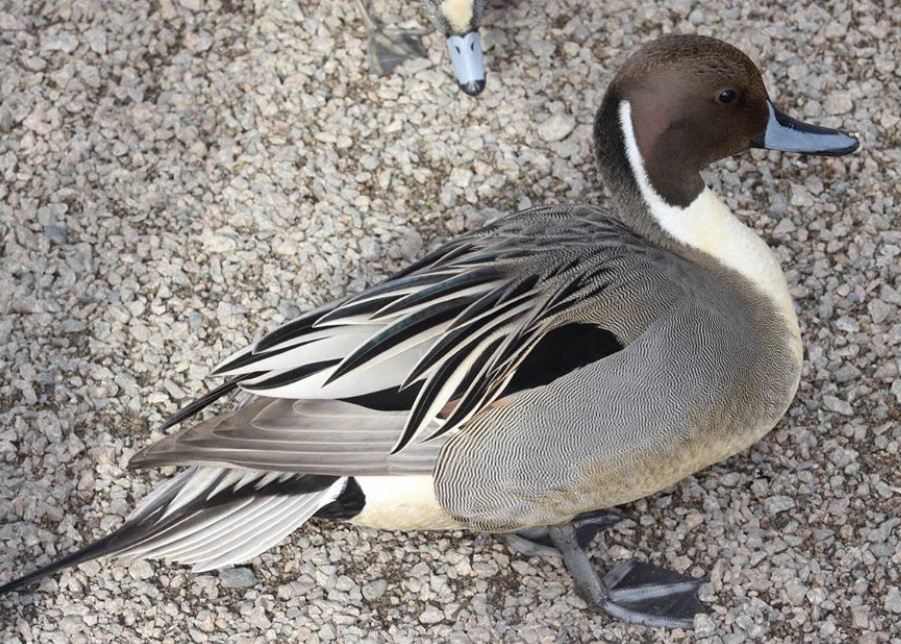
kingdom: Animalia
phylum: Chordata
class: Aves
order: Anseriformes
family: Anatidae
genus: Anas
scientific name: Anas acuta
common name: Northern pintail
